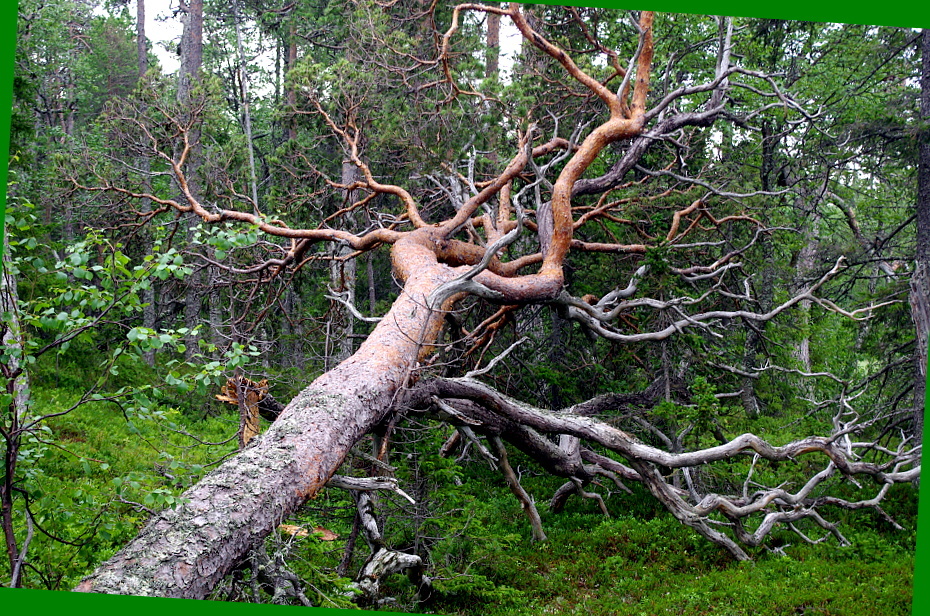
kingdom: Plantae
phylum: Tracheophyta
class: Pinopsida
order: Pinales
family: Pinaceae
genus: Pinus
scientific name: Pinus sylvestris
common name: Scots pine
